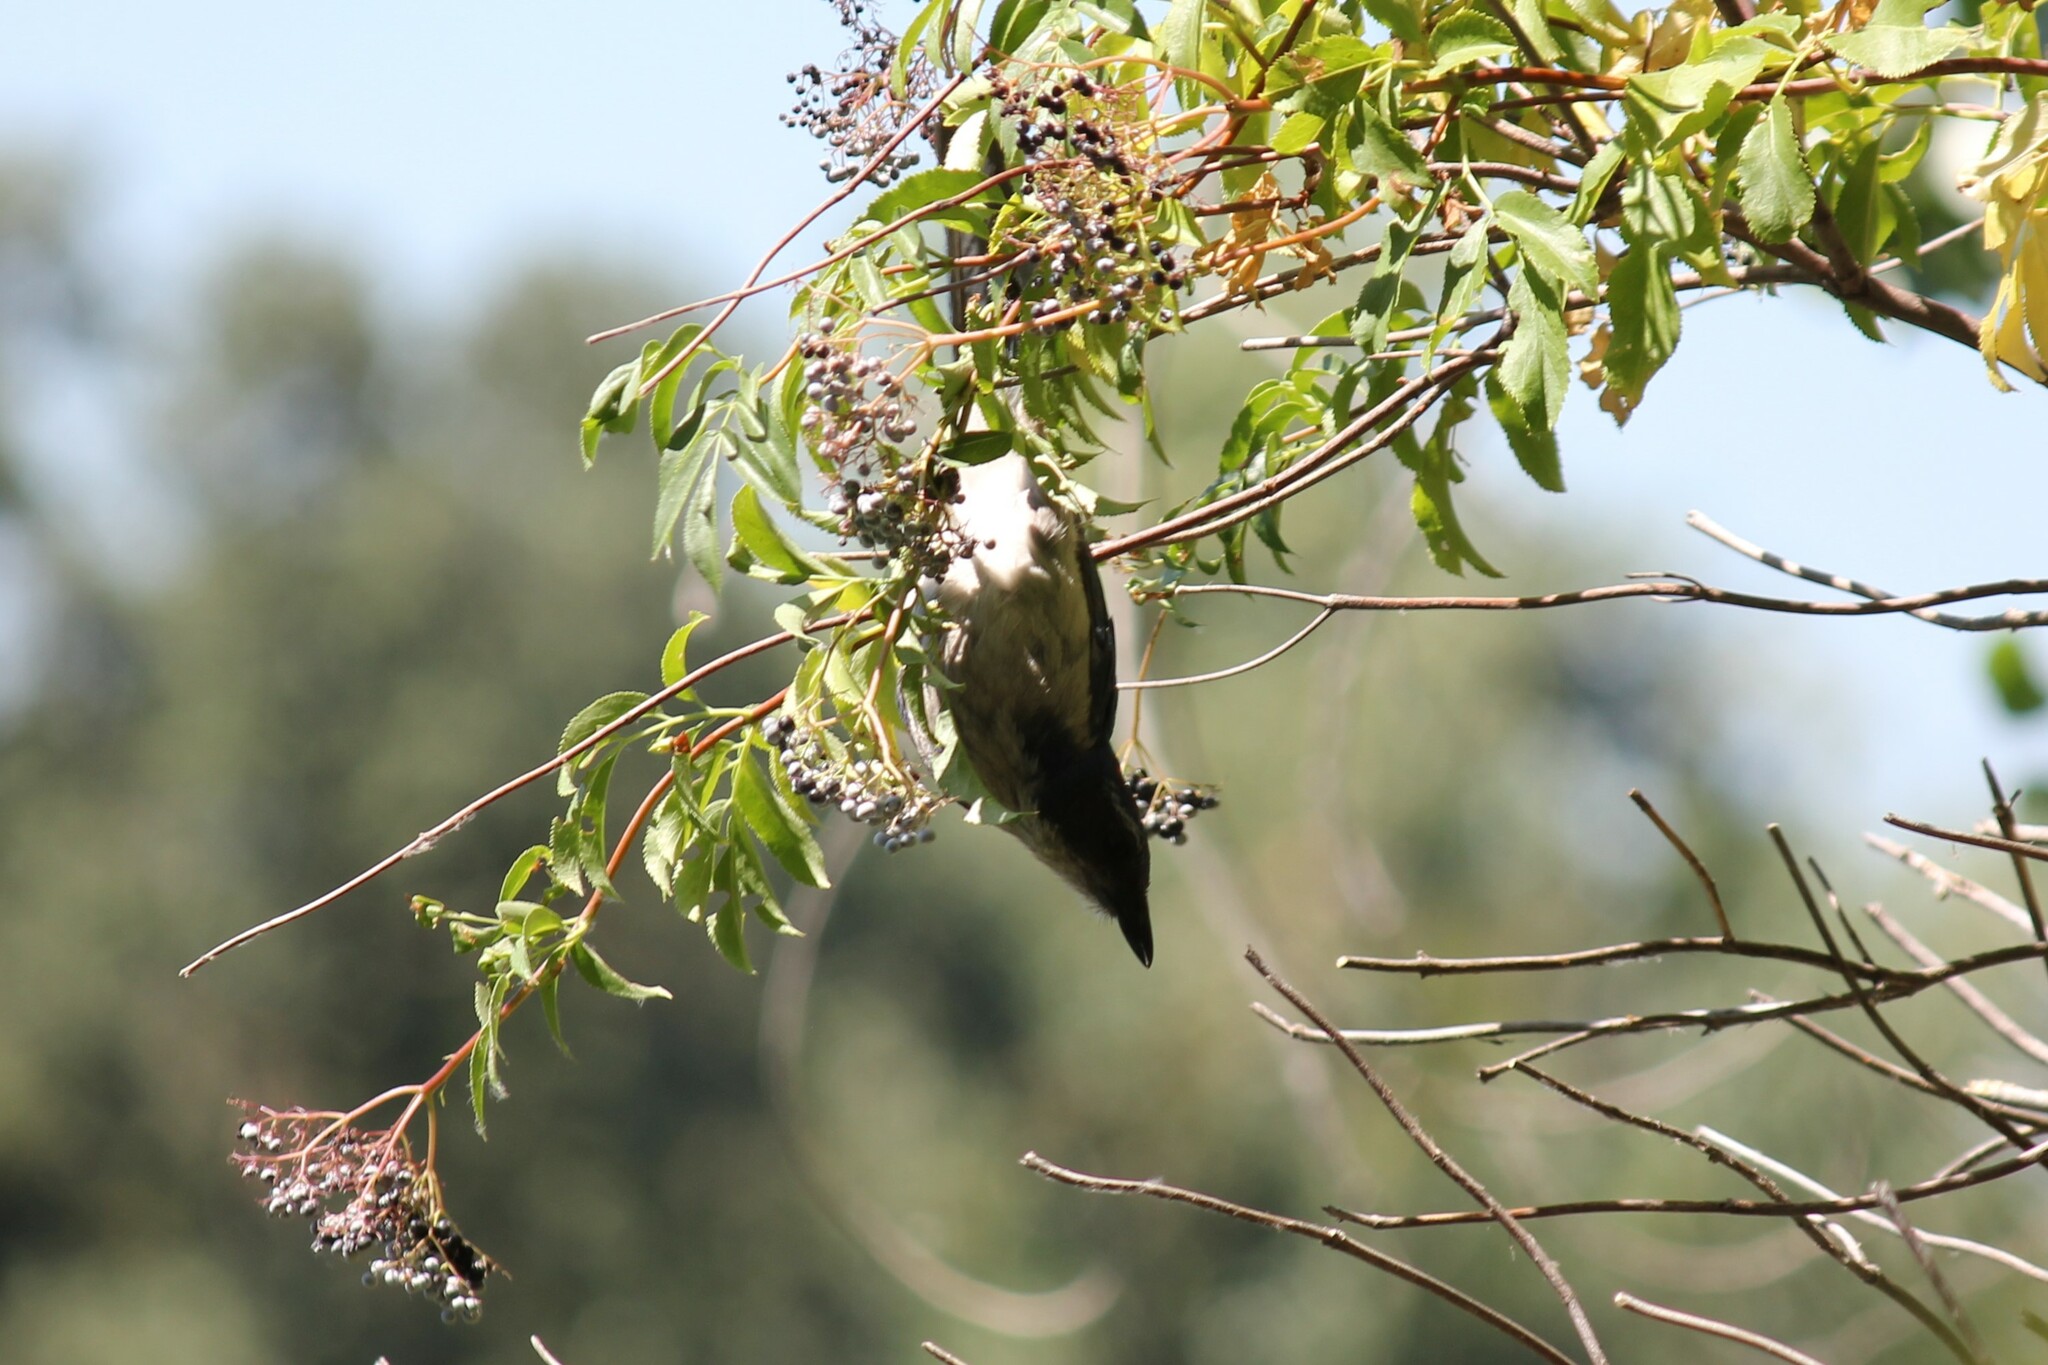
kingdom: Animalia
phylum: Chordata
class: Aves
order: Passeriformes
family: Corvidae
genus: Aphelocoma
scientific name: Aphelocoma californica
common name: California scrub-jay
